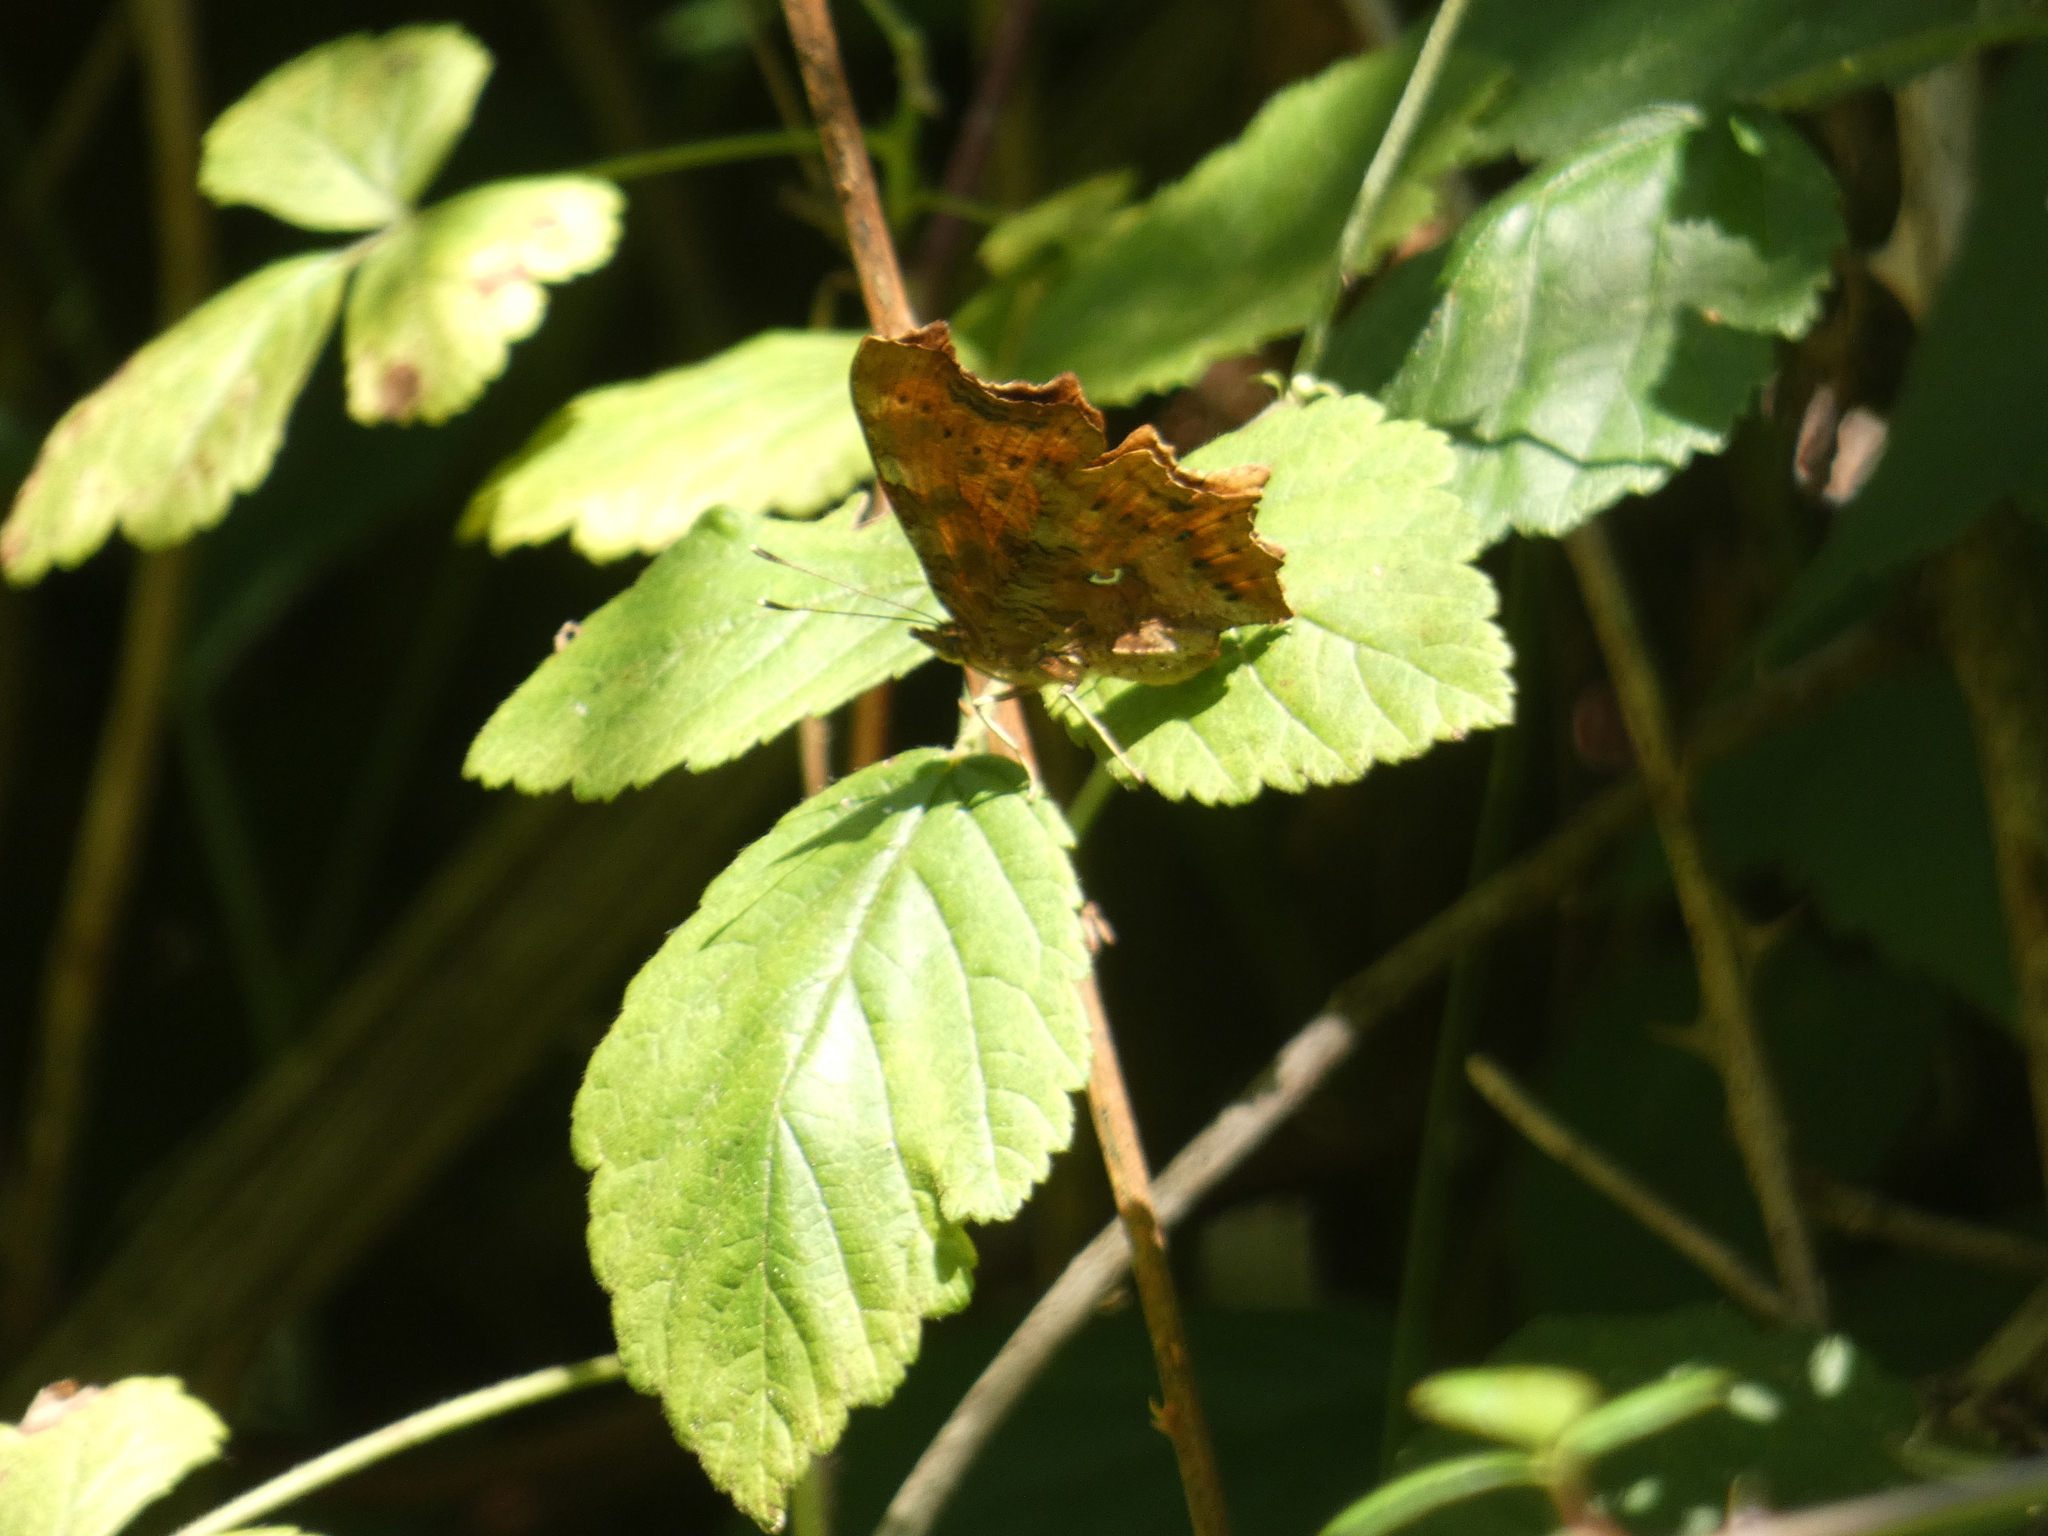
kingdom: Animalia
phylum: Arthropoda
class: Insecta
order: Lepidoptera
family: Nymphalidae
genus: Polygonia
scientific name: Polygonia c-album
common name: Comma
